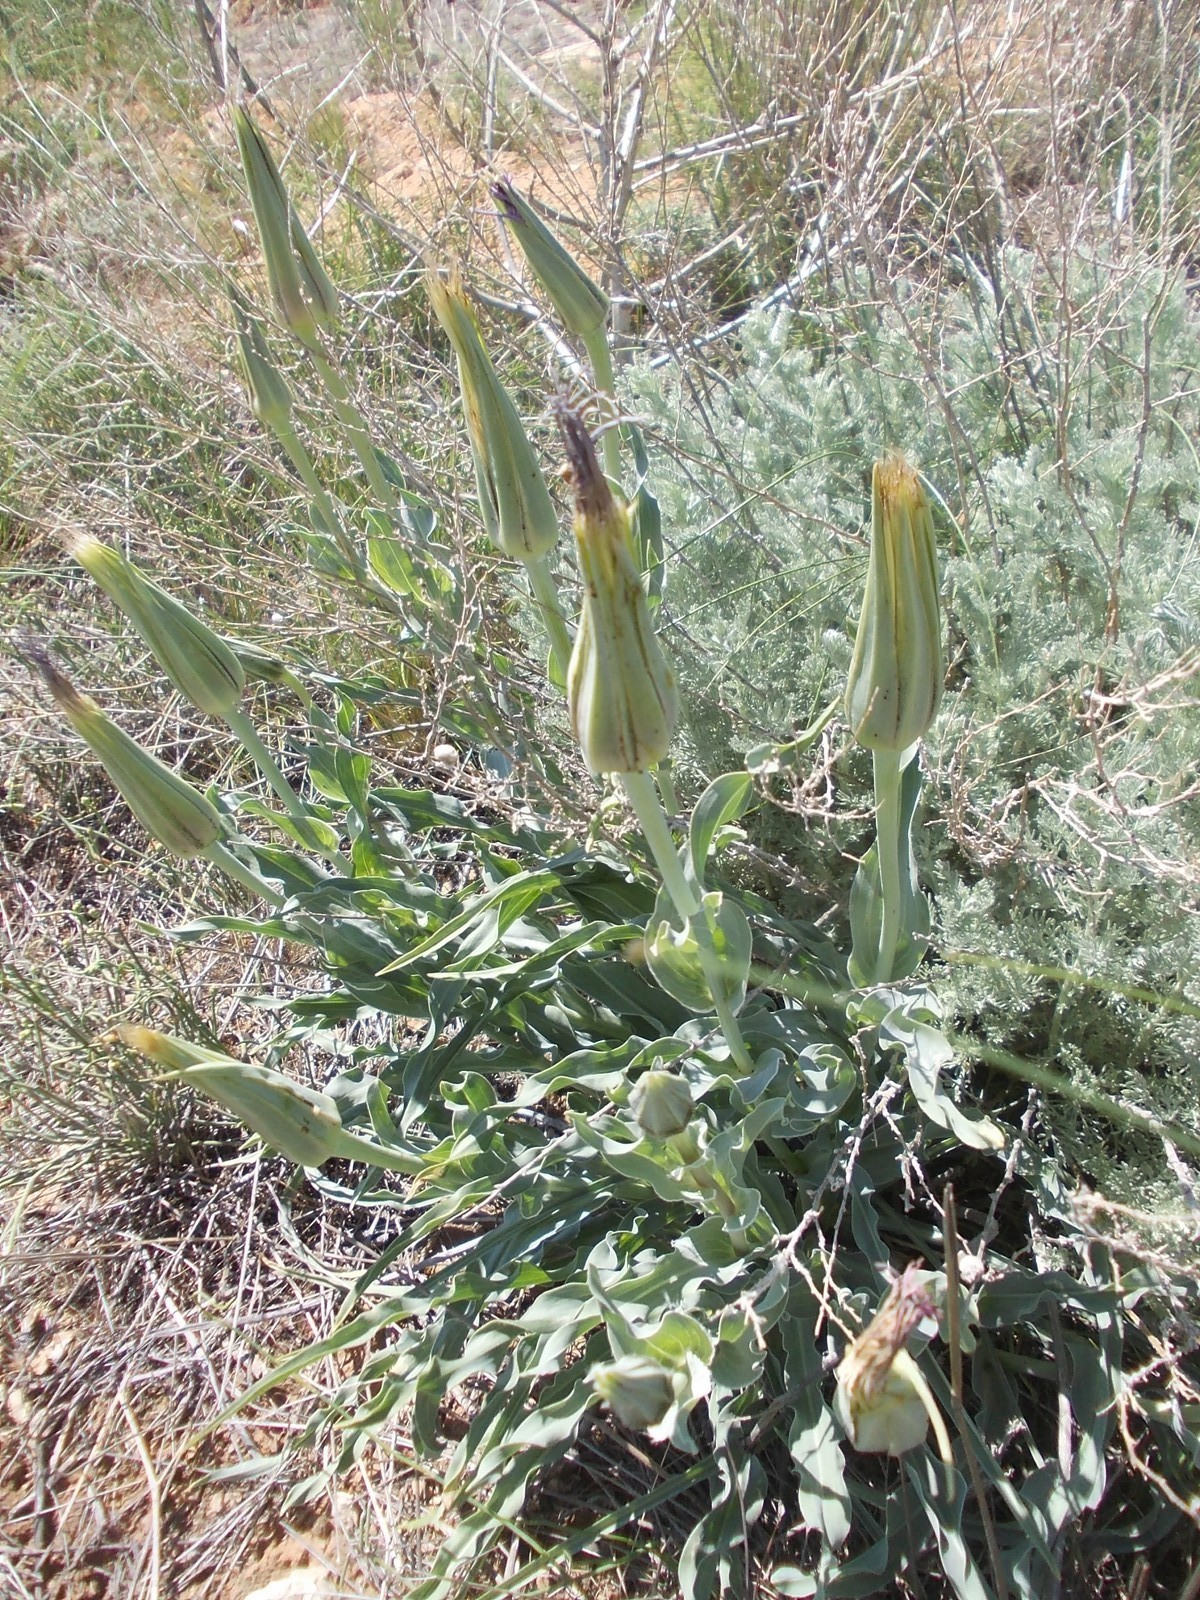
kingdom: Plantae
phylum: Tracheophyta
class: Magnoliopsida
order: Asterales
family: Asteraceae
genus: Tragopogon
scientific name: Tragopogon marginifolius
